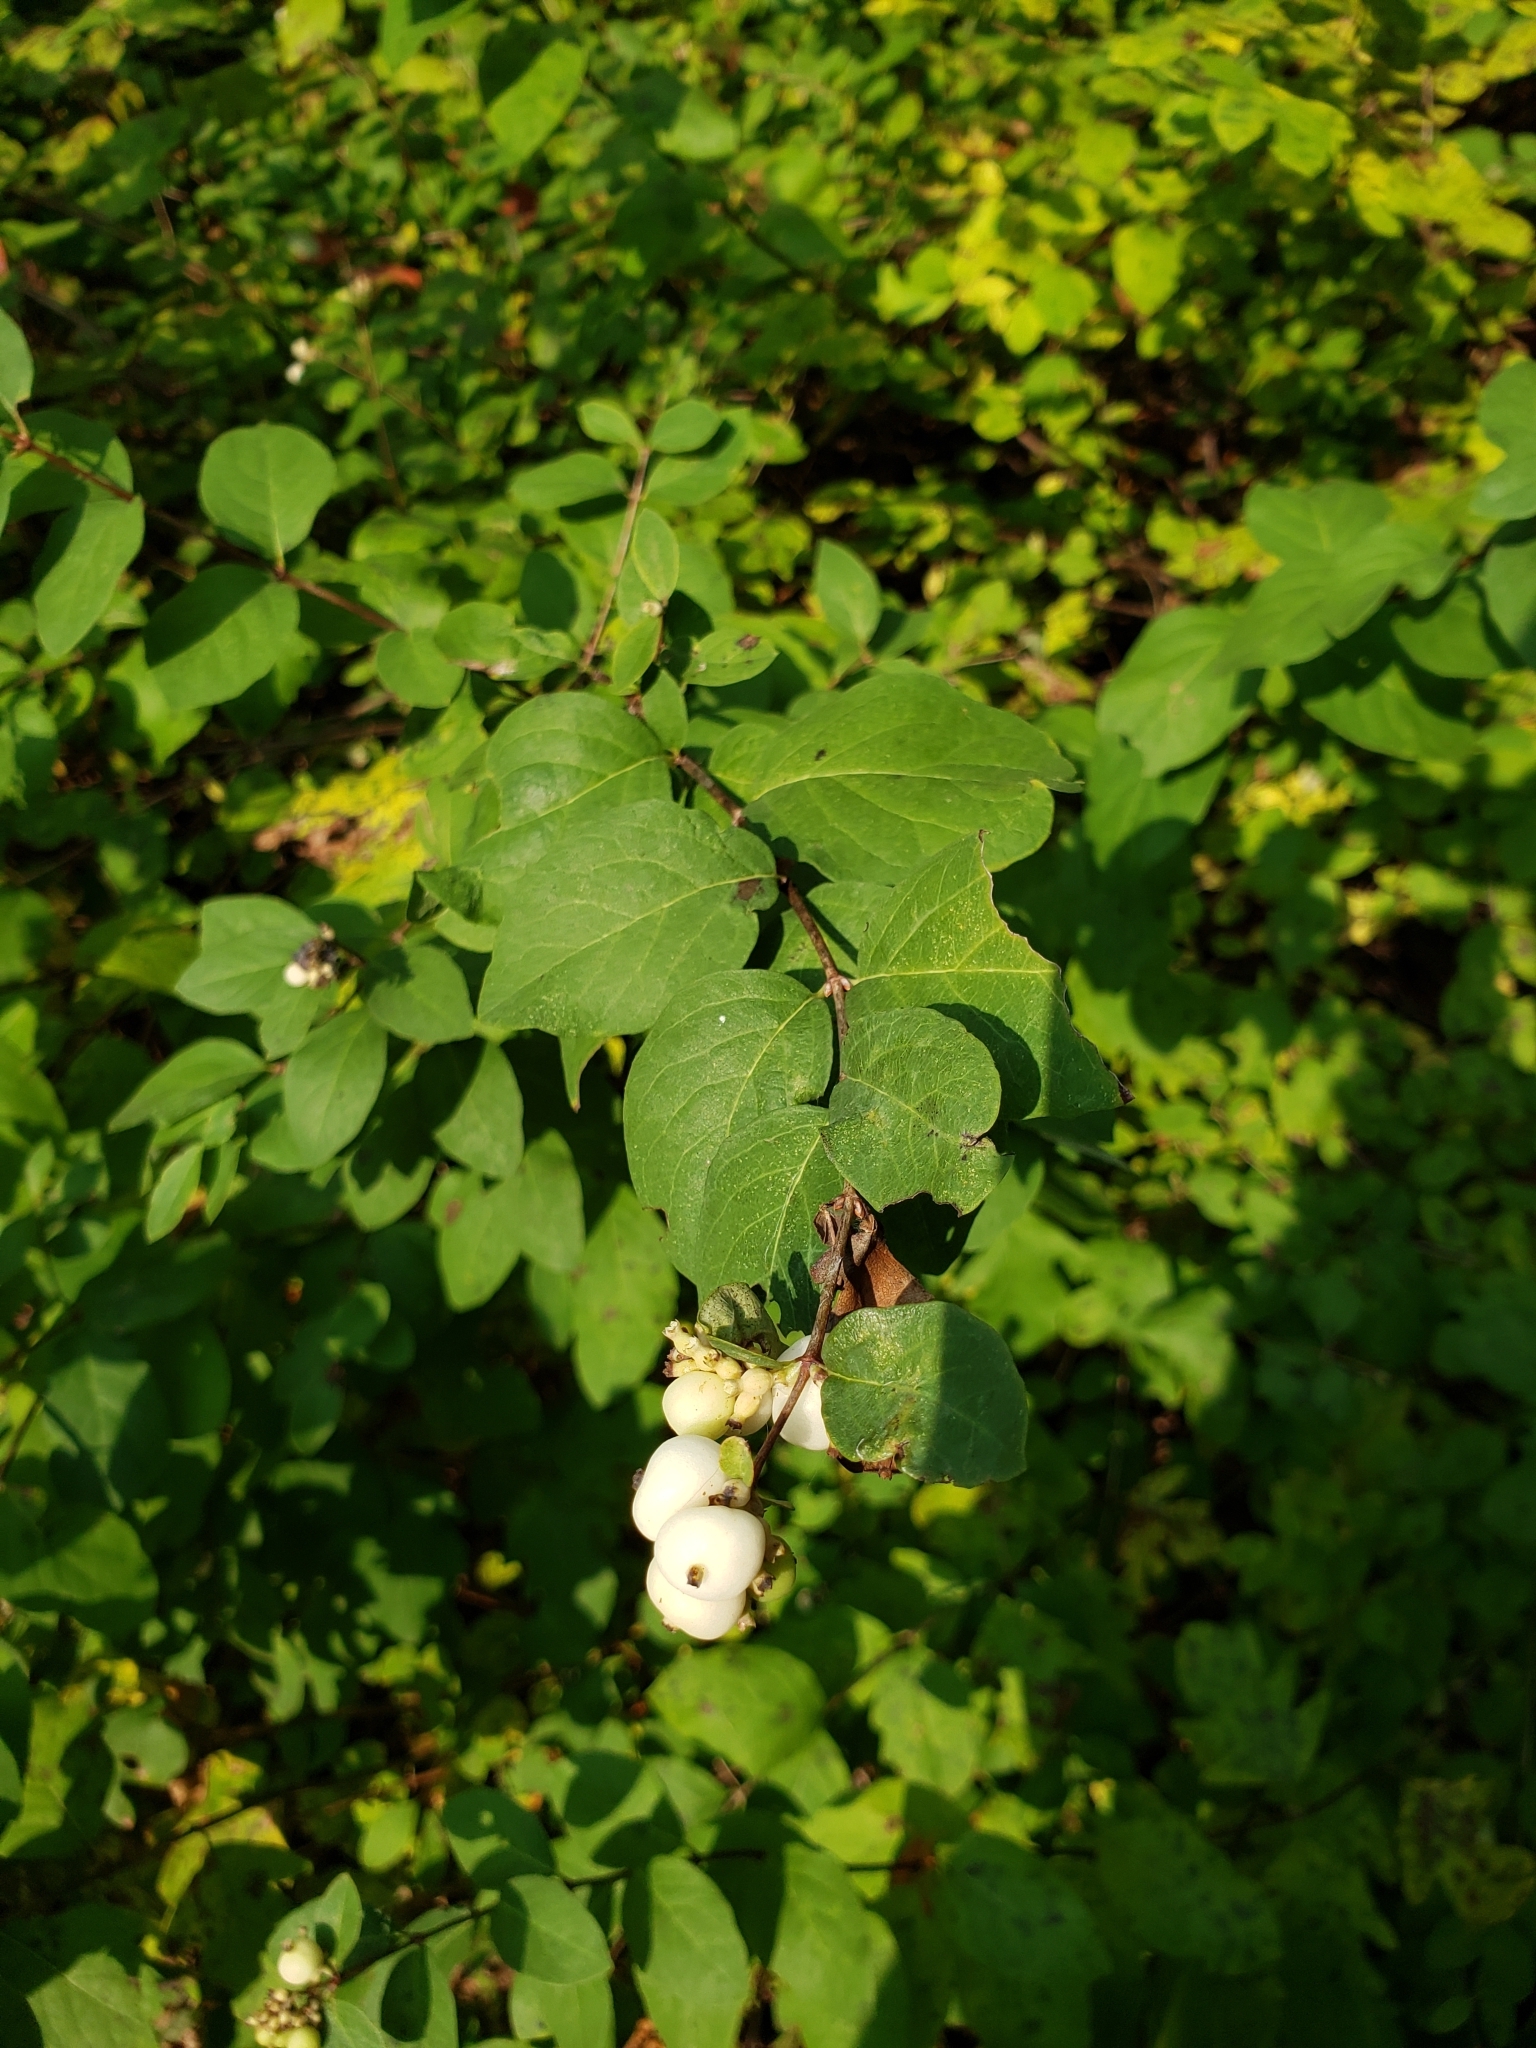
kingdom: Plantae
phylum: Tracheophyta
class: Magnoliopsida
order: Dipsacales
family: Caprifoliaceae
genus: Symphoricarpos
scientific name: Symphoricarpos albus
